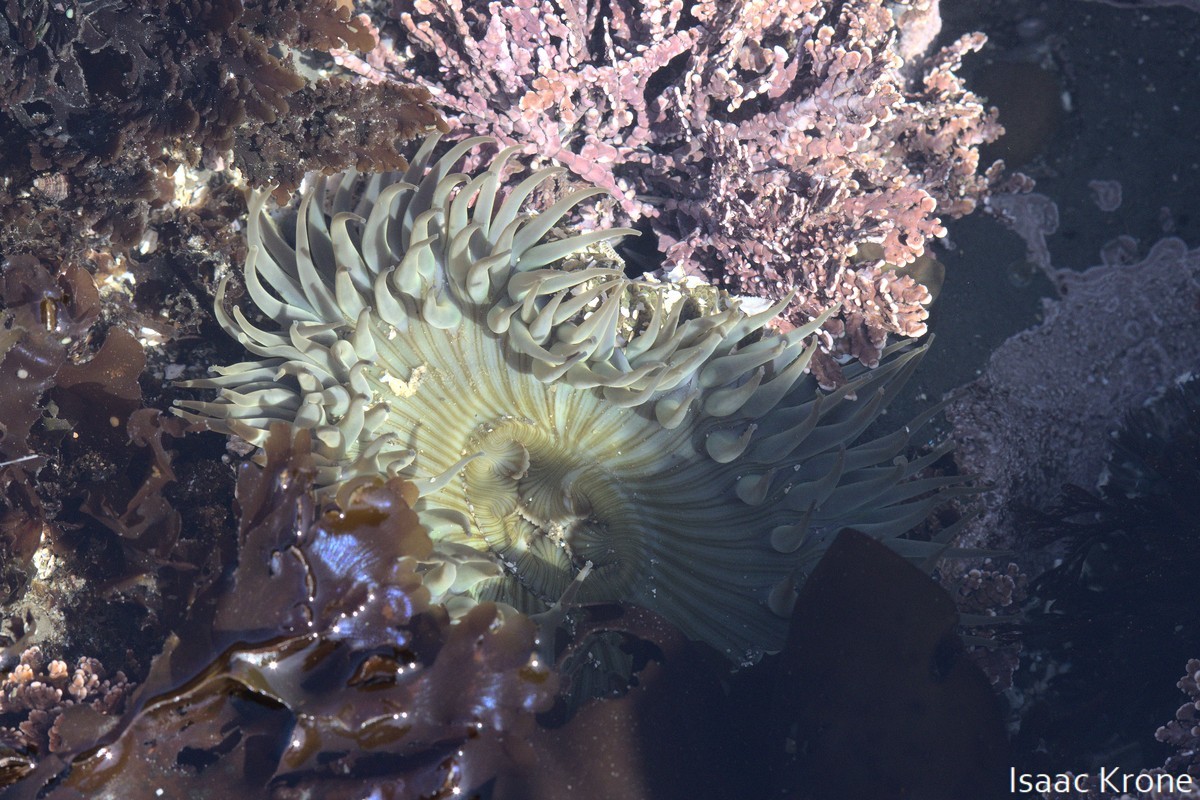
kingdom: Animalia
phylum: Cnidaria
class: Anthozoa
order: Actiniaria
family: Actiniidae
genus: Anthopleura
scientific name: Anthopleura sola
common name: Sun anemone
